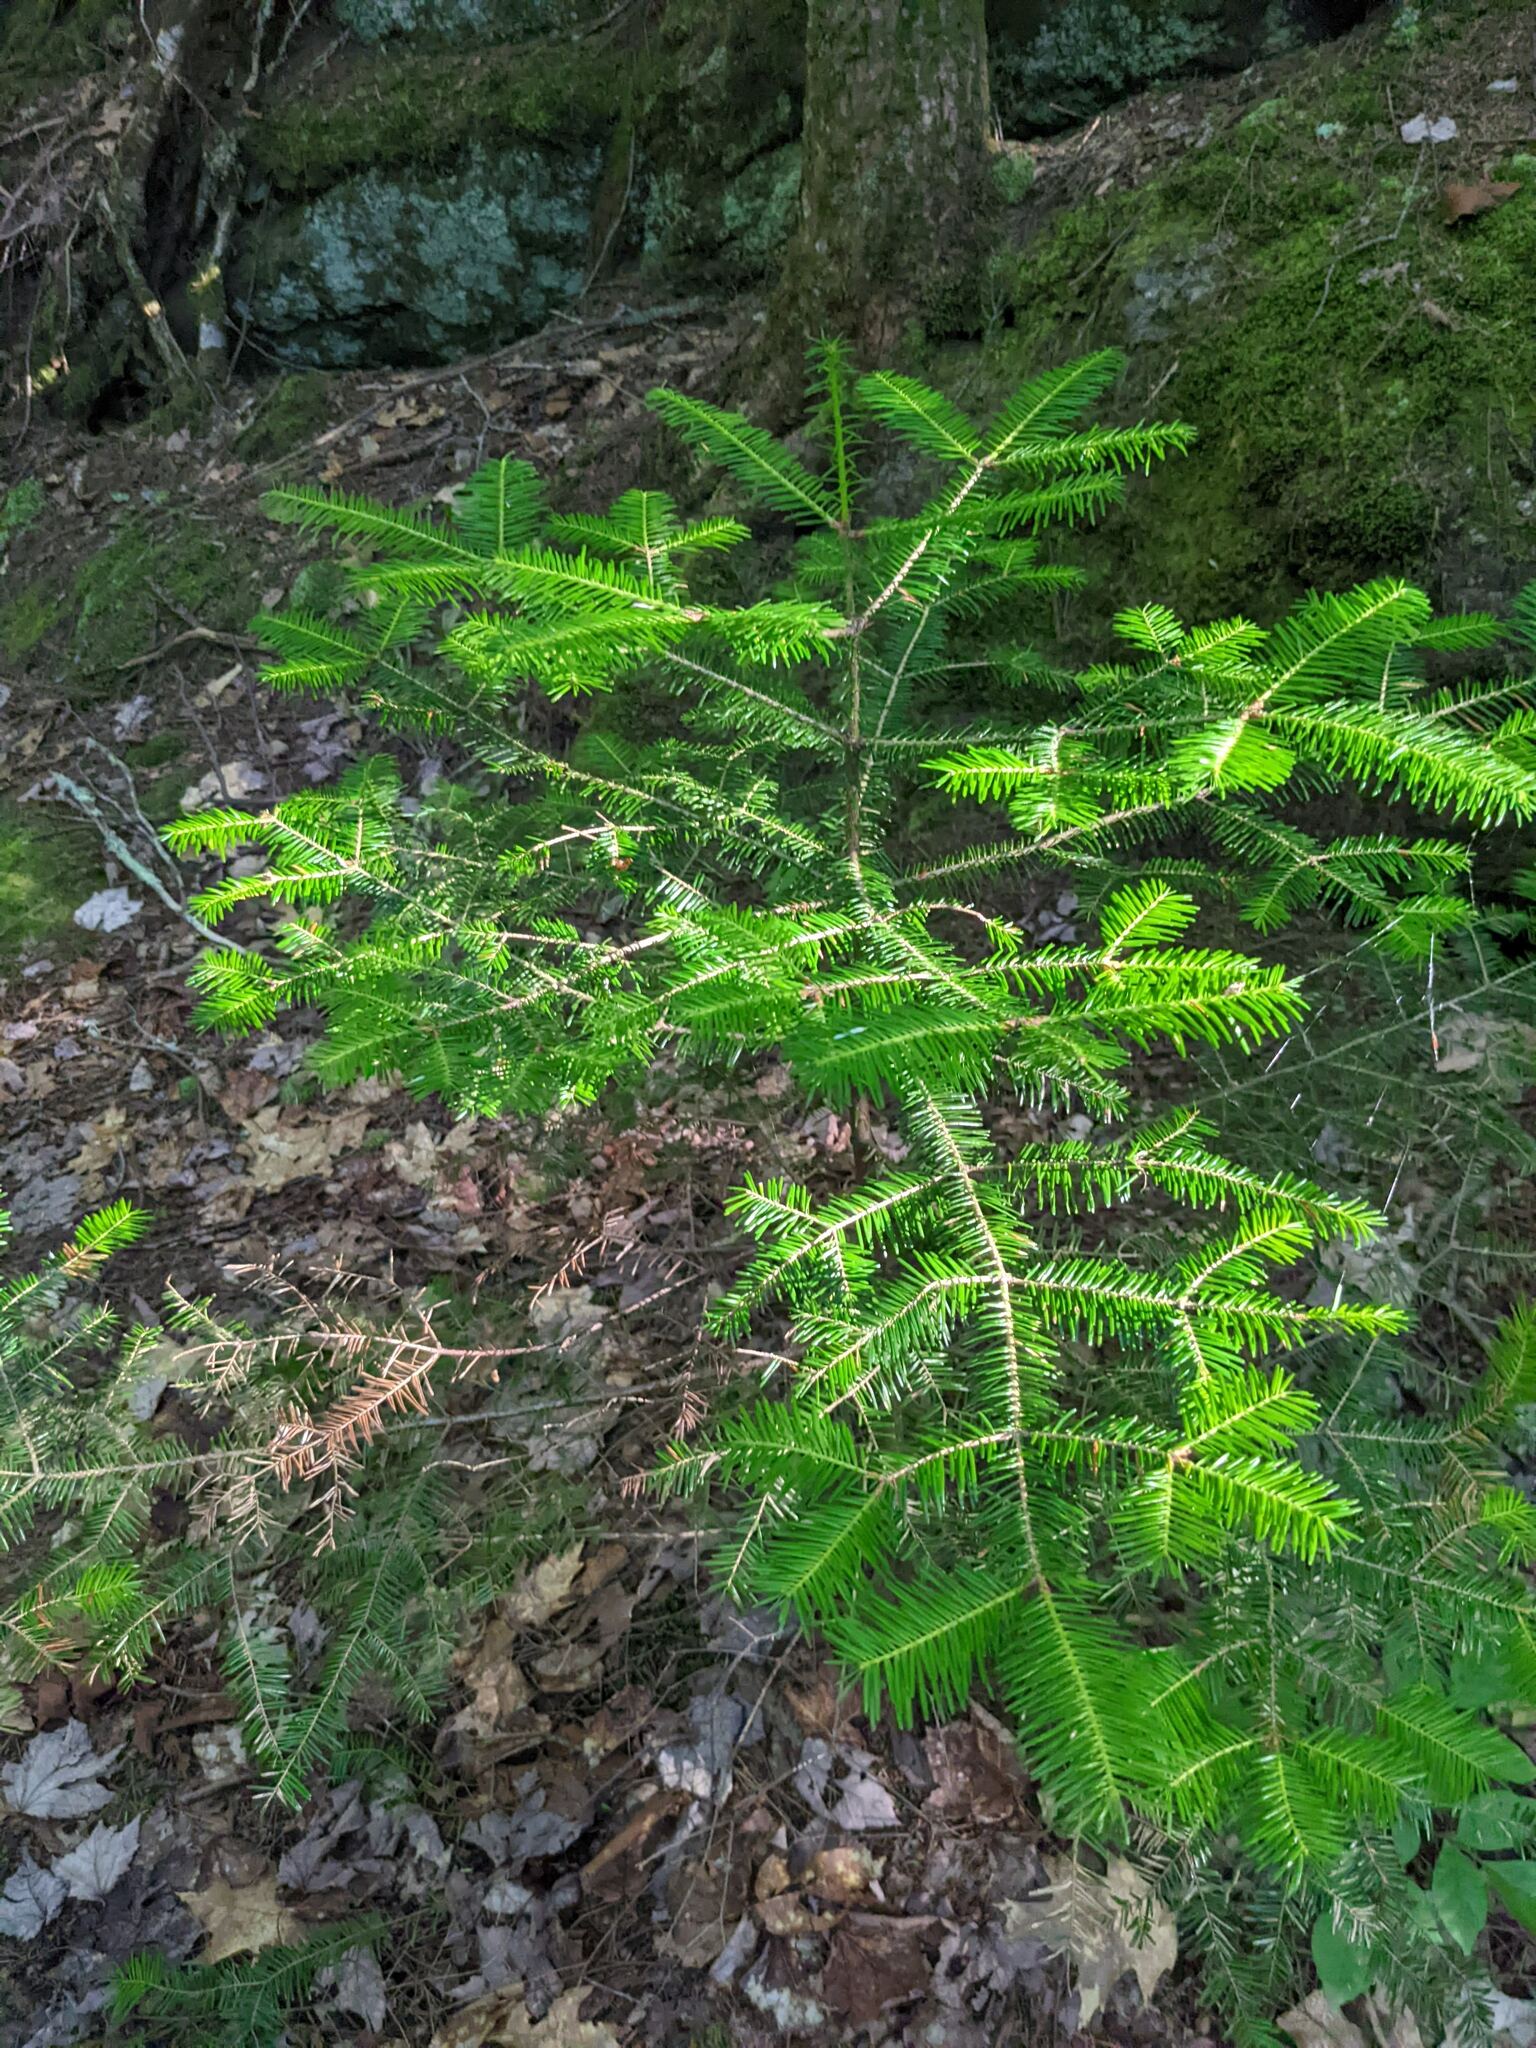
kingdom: Plantae
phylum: Tracheophyta
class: Pinopsida
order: Pinales
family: Pinaceae
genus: Abies
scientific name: Abies balsamea
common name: Balsam fir
